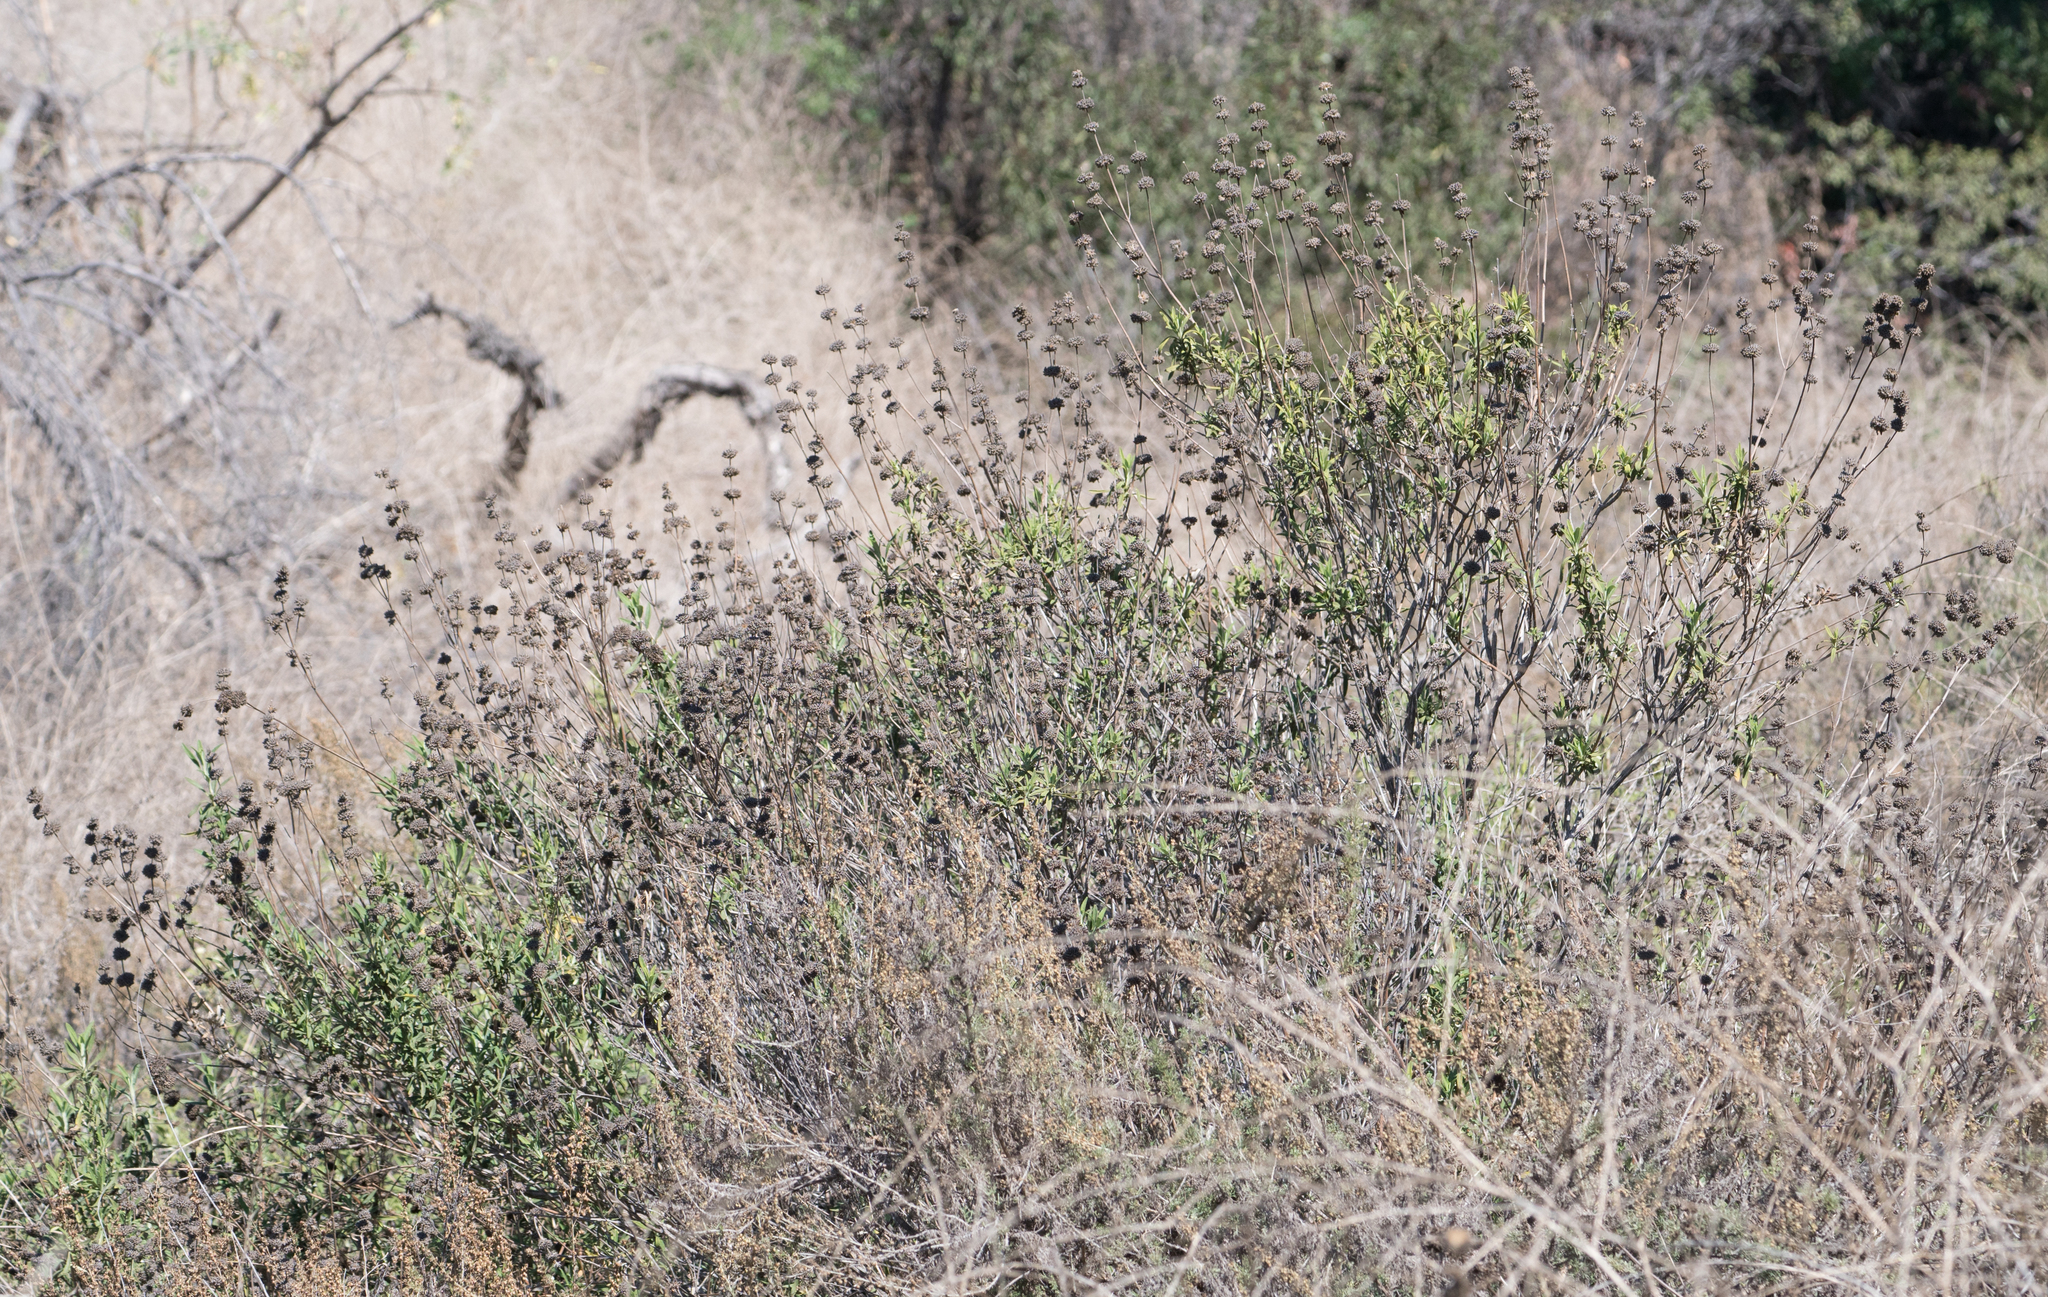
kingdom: Plantae
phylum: Tracheophyta
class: Magnoliopsida
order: Lamiales
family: Lamiaceae
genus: Salvia
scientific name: Salvia mellifera
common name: Black sage
